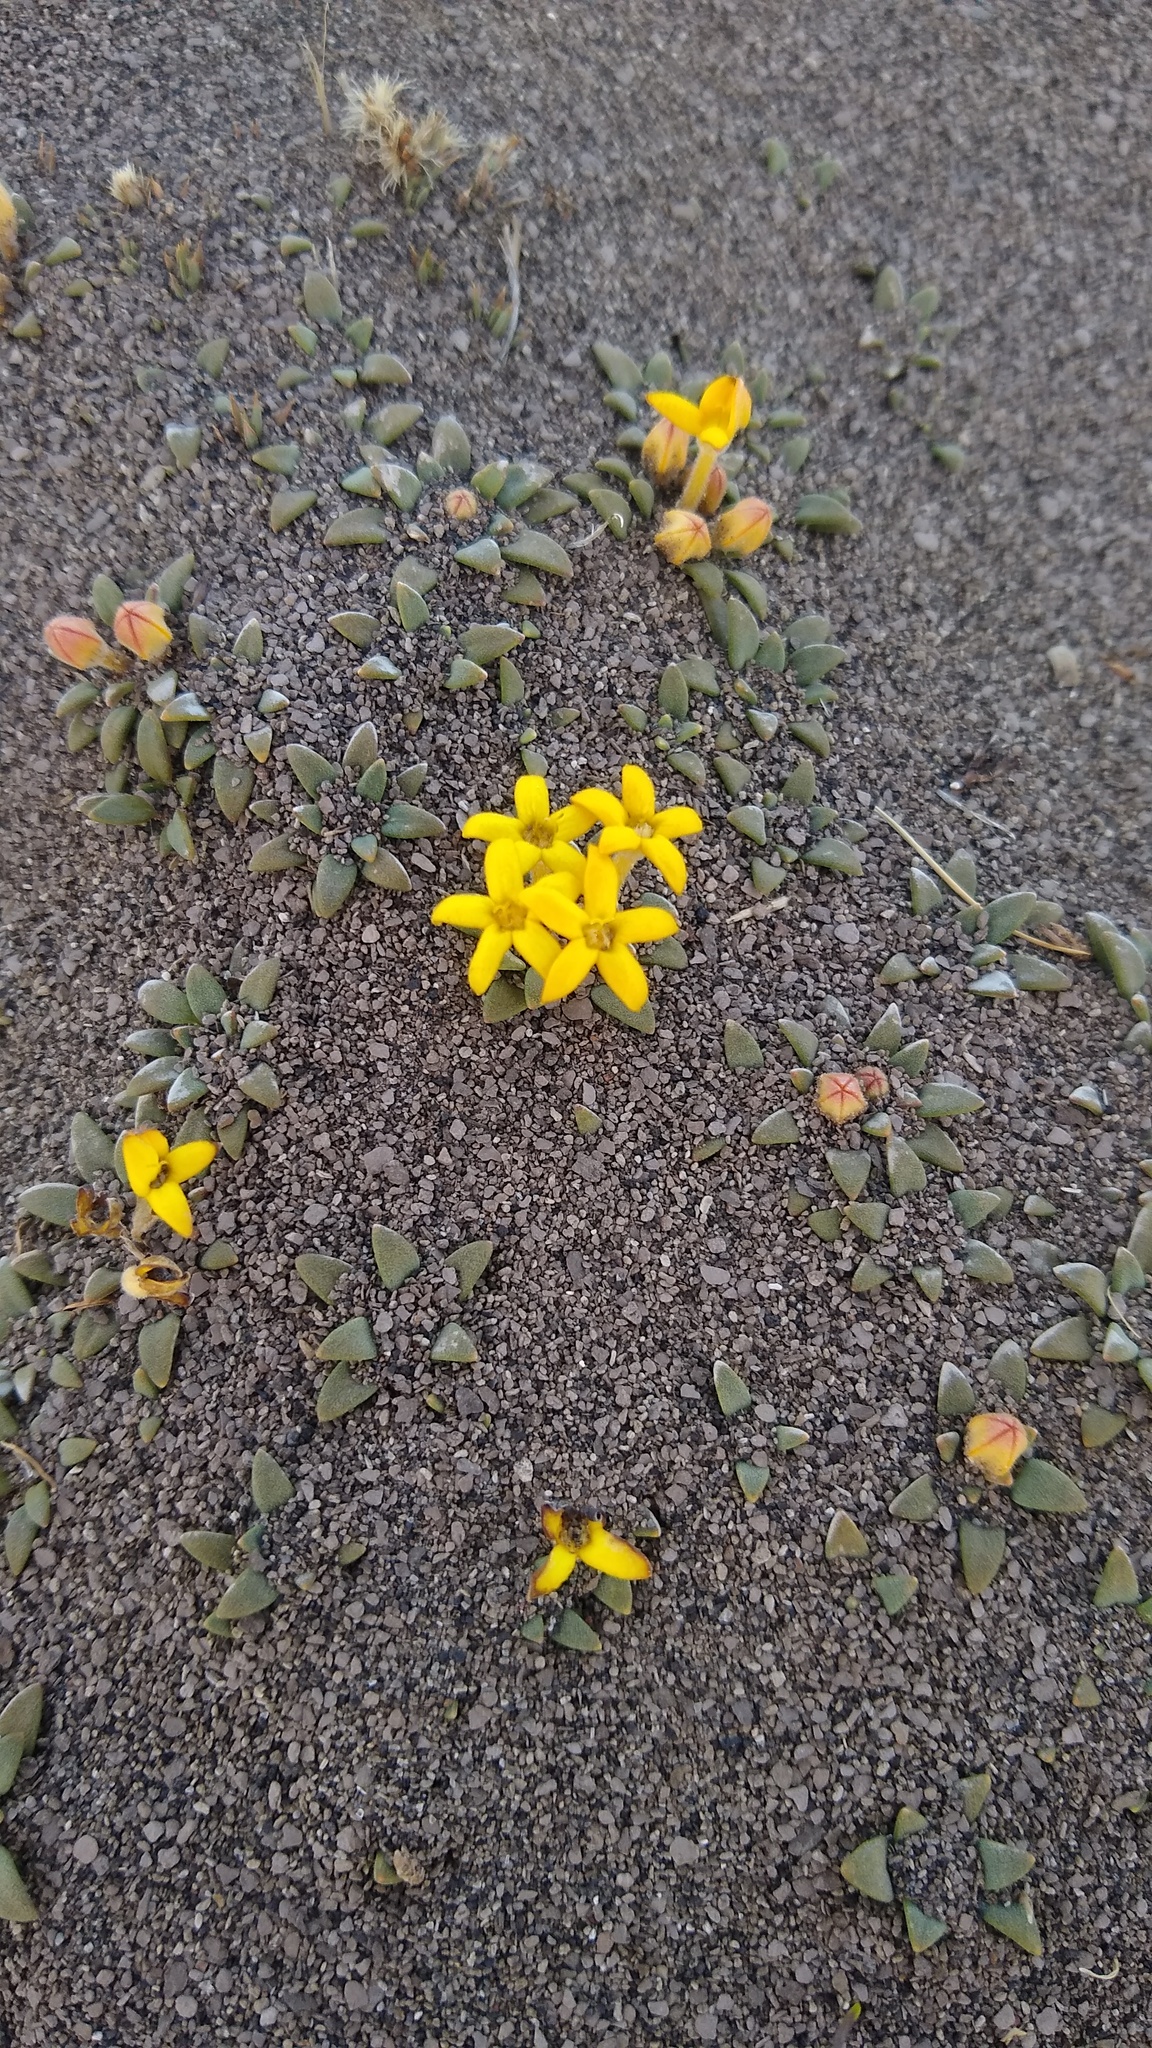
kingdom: Plantae
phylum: Tracheophyta
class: Magnoliopsida
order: Gentianales
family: Rubiaceae
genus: Oreopolus
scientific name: Oreopolus glacialis
